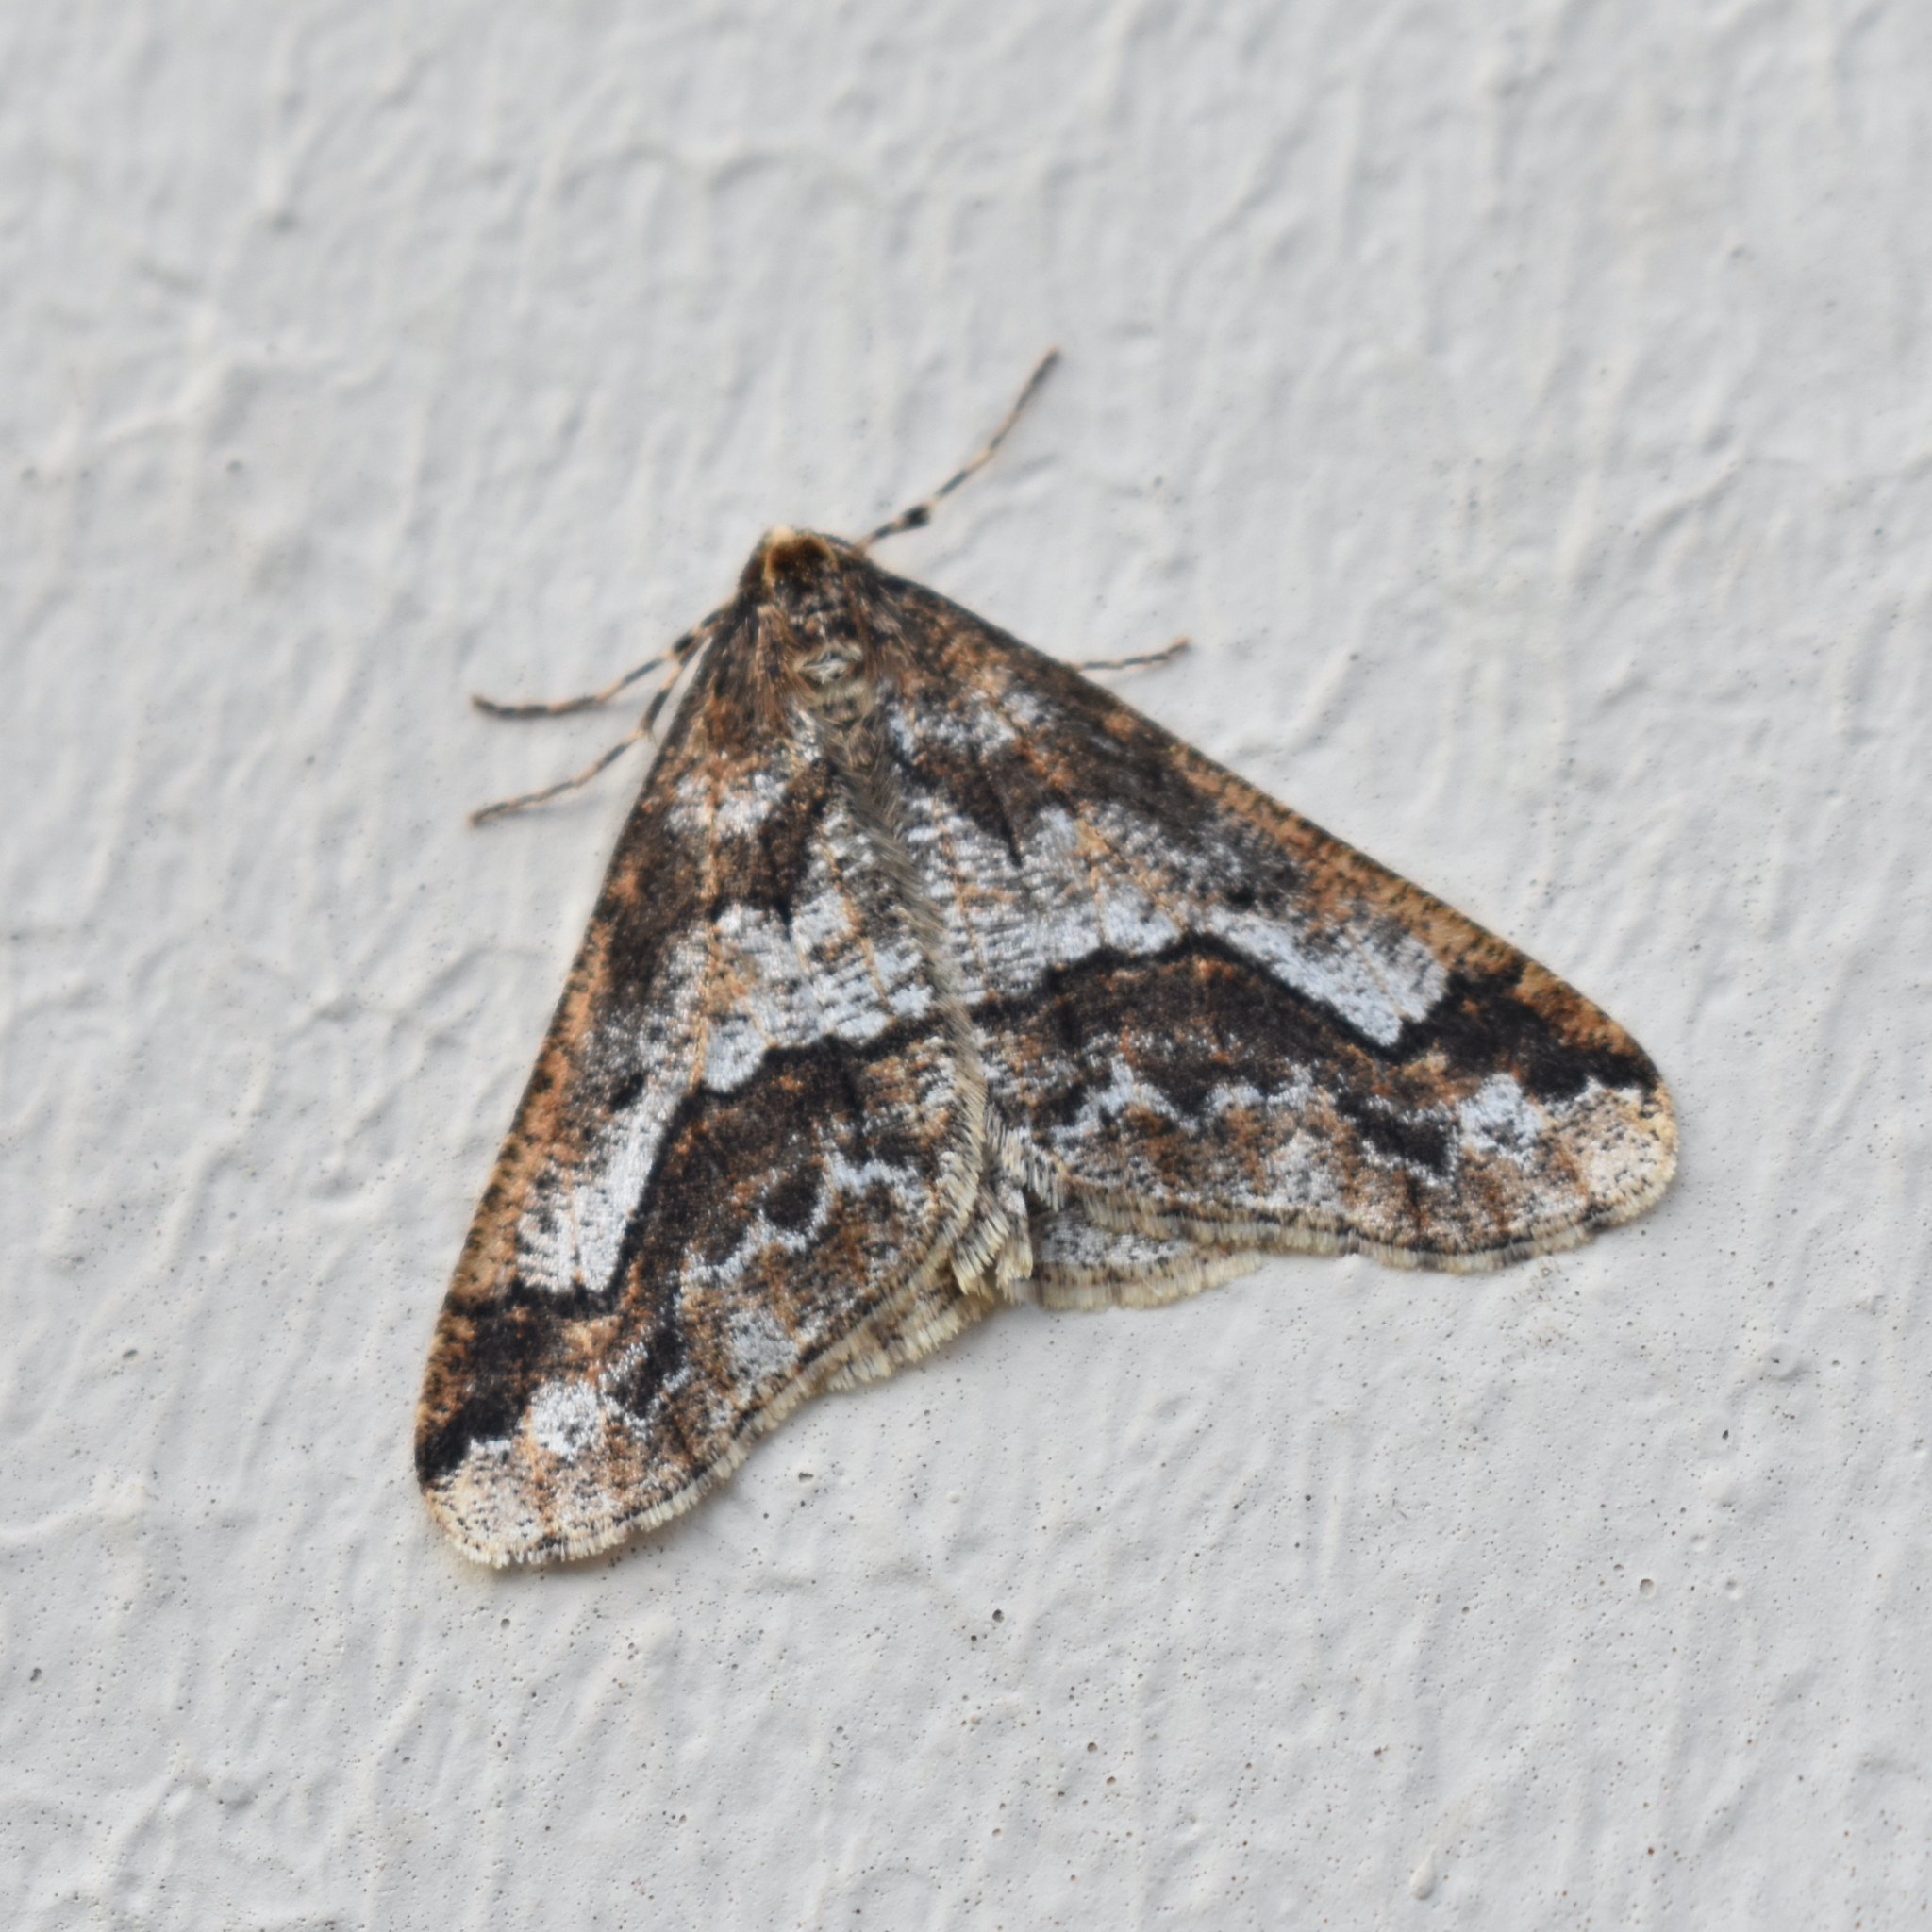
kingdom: Animalia
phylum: Arthropoda
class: Insecta
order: Lepidoptera
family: Geometridae
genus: Erannis
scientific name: Erannis vancouverensis
